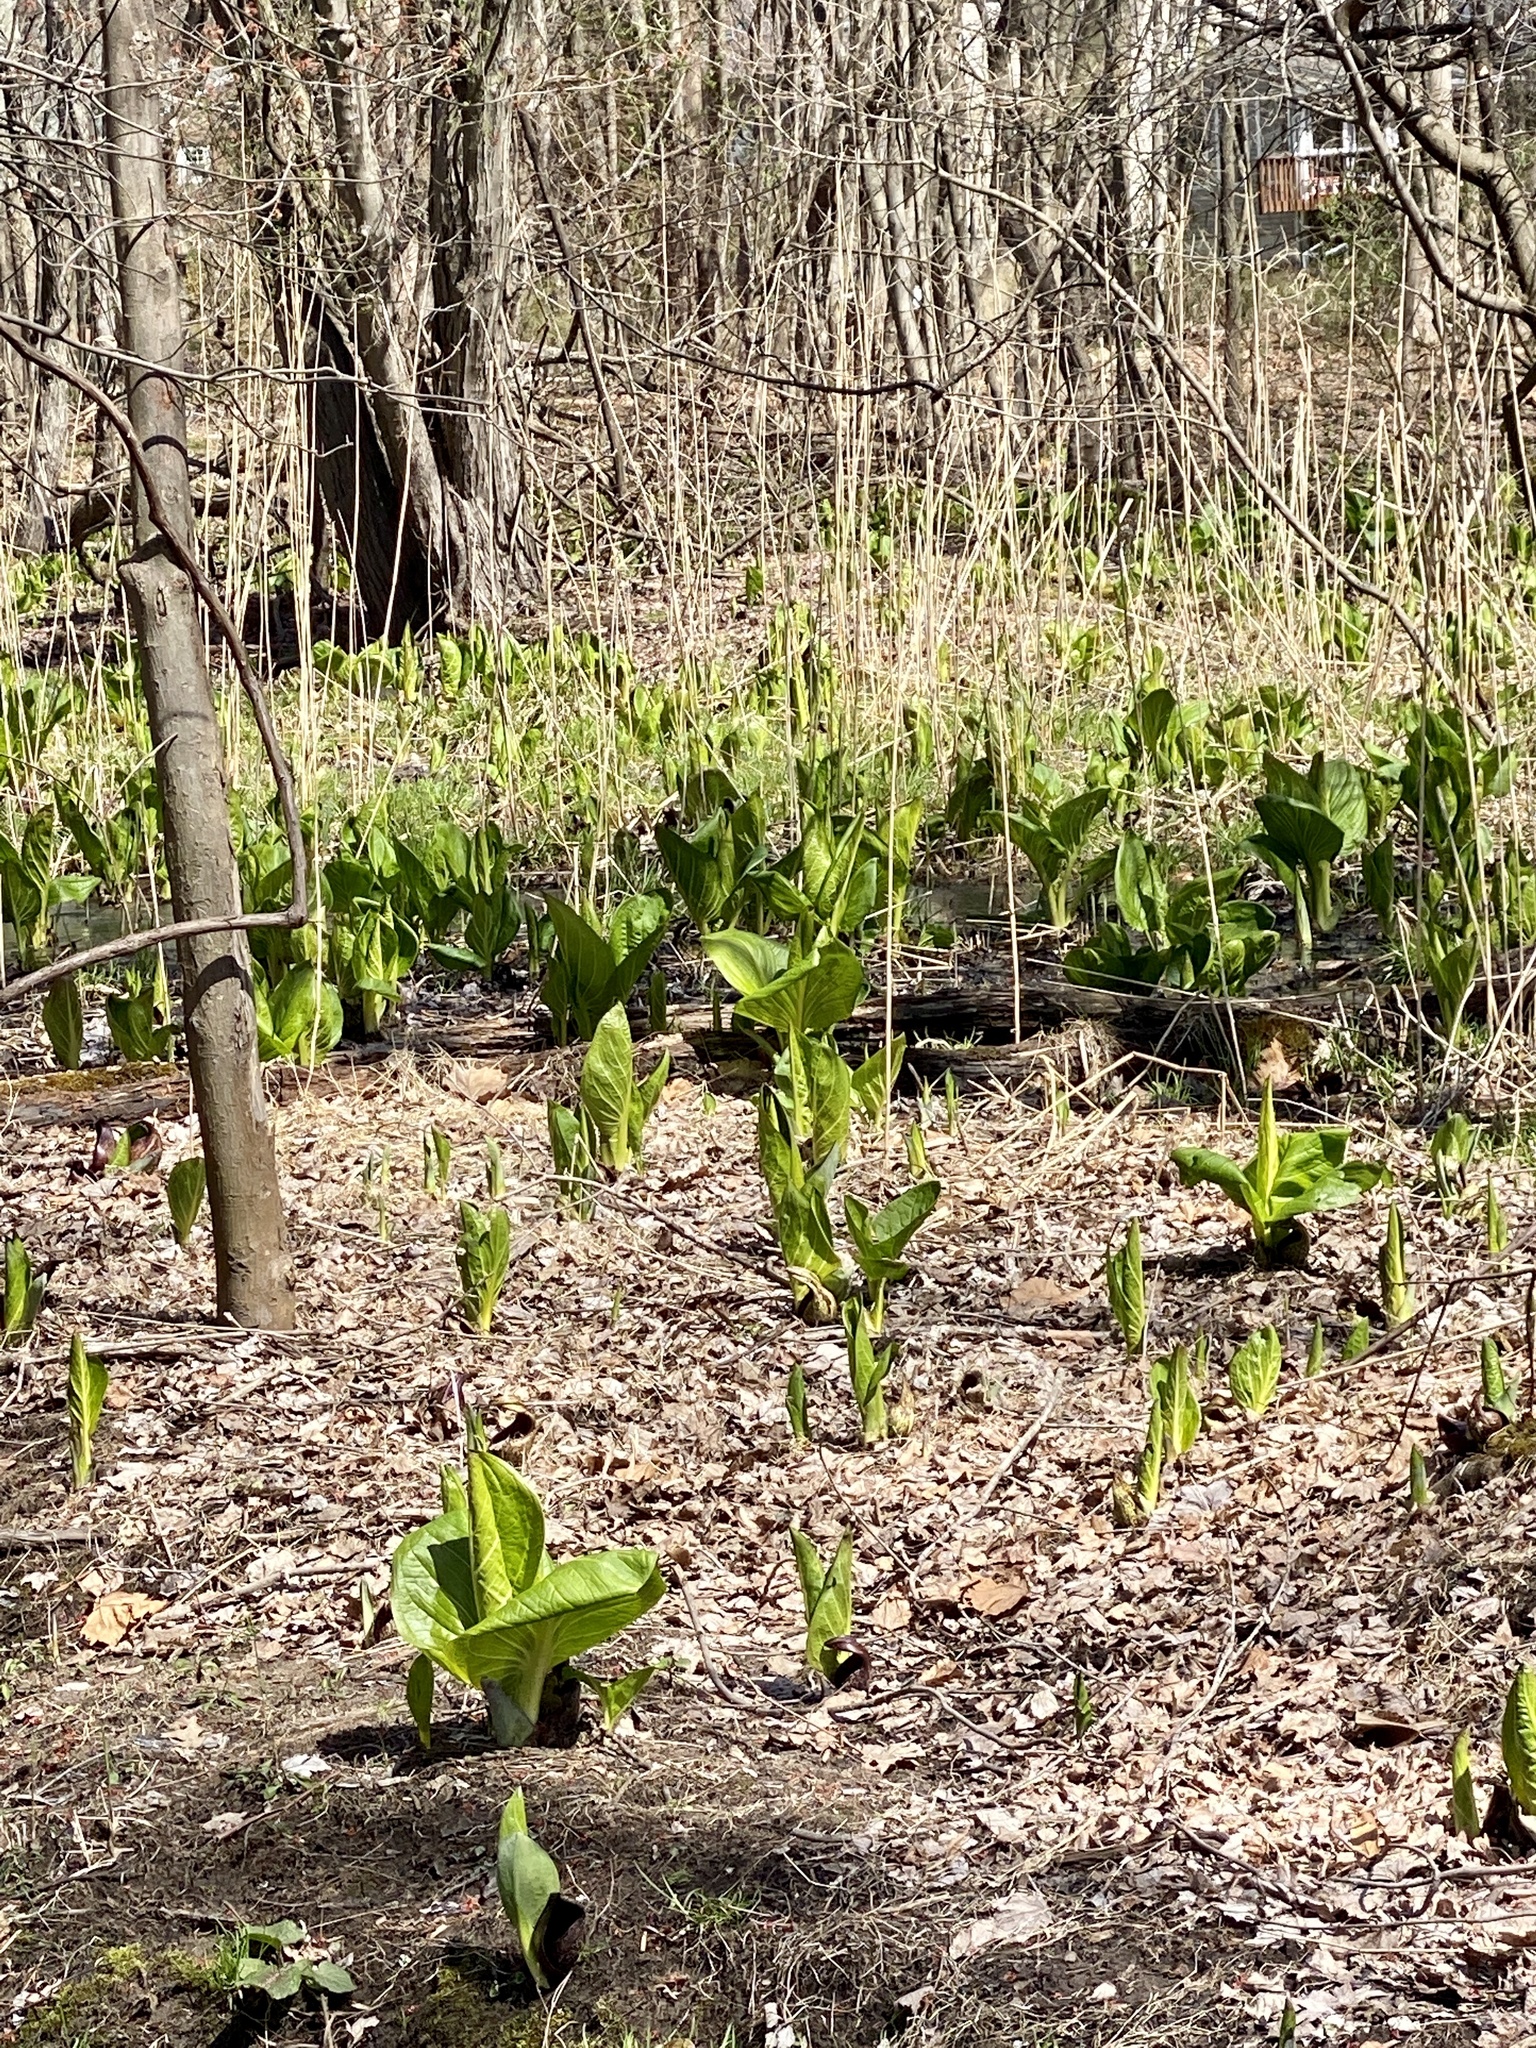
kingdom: Plantae
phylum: Tracheophyta
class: Liliopsida
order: Alismatales
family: Araceae
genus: Symplocarpus
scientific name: Symplocarpus foetidus
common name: Eastern skunk cabbage
